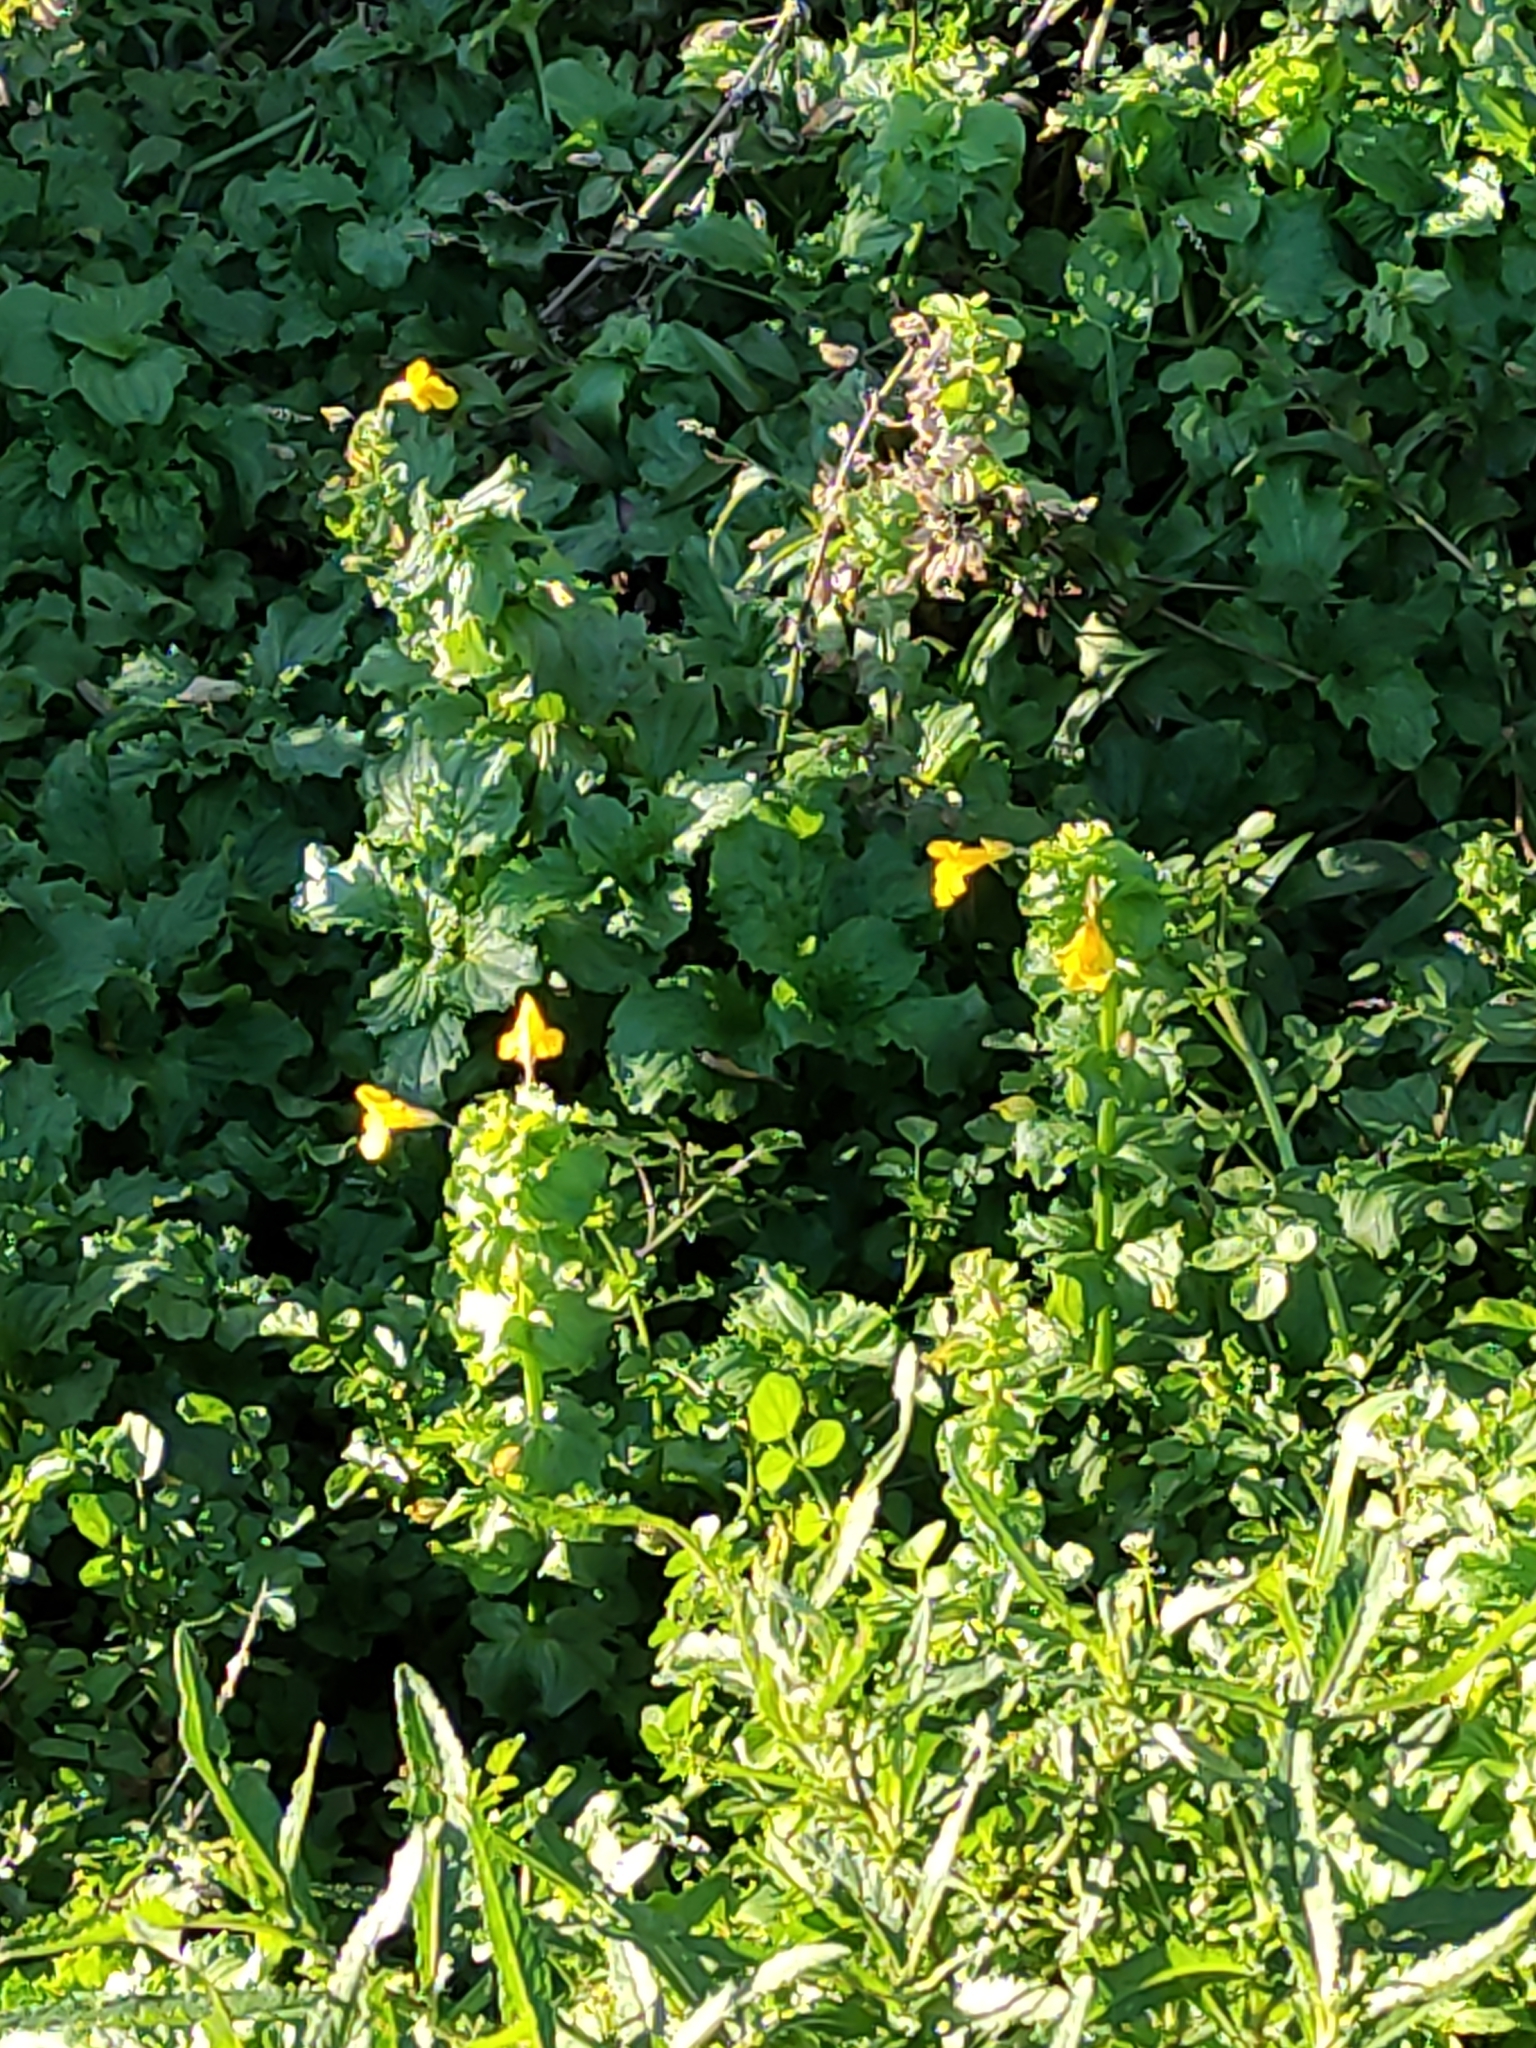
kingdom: Plantae
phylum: Tracheophyta
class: Magnoliopsida
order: Lamiales
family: Phrymaceae
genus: Erythranthe
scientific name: Erythranthe guttata
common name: Monkeyflower
